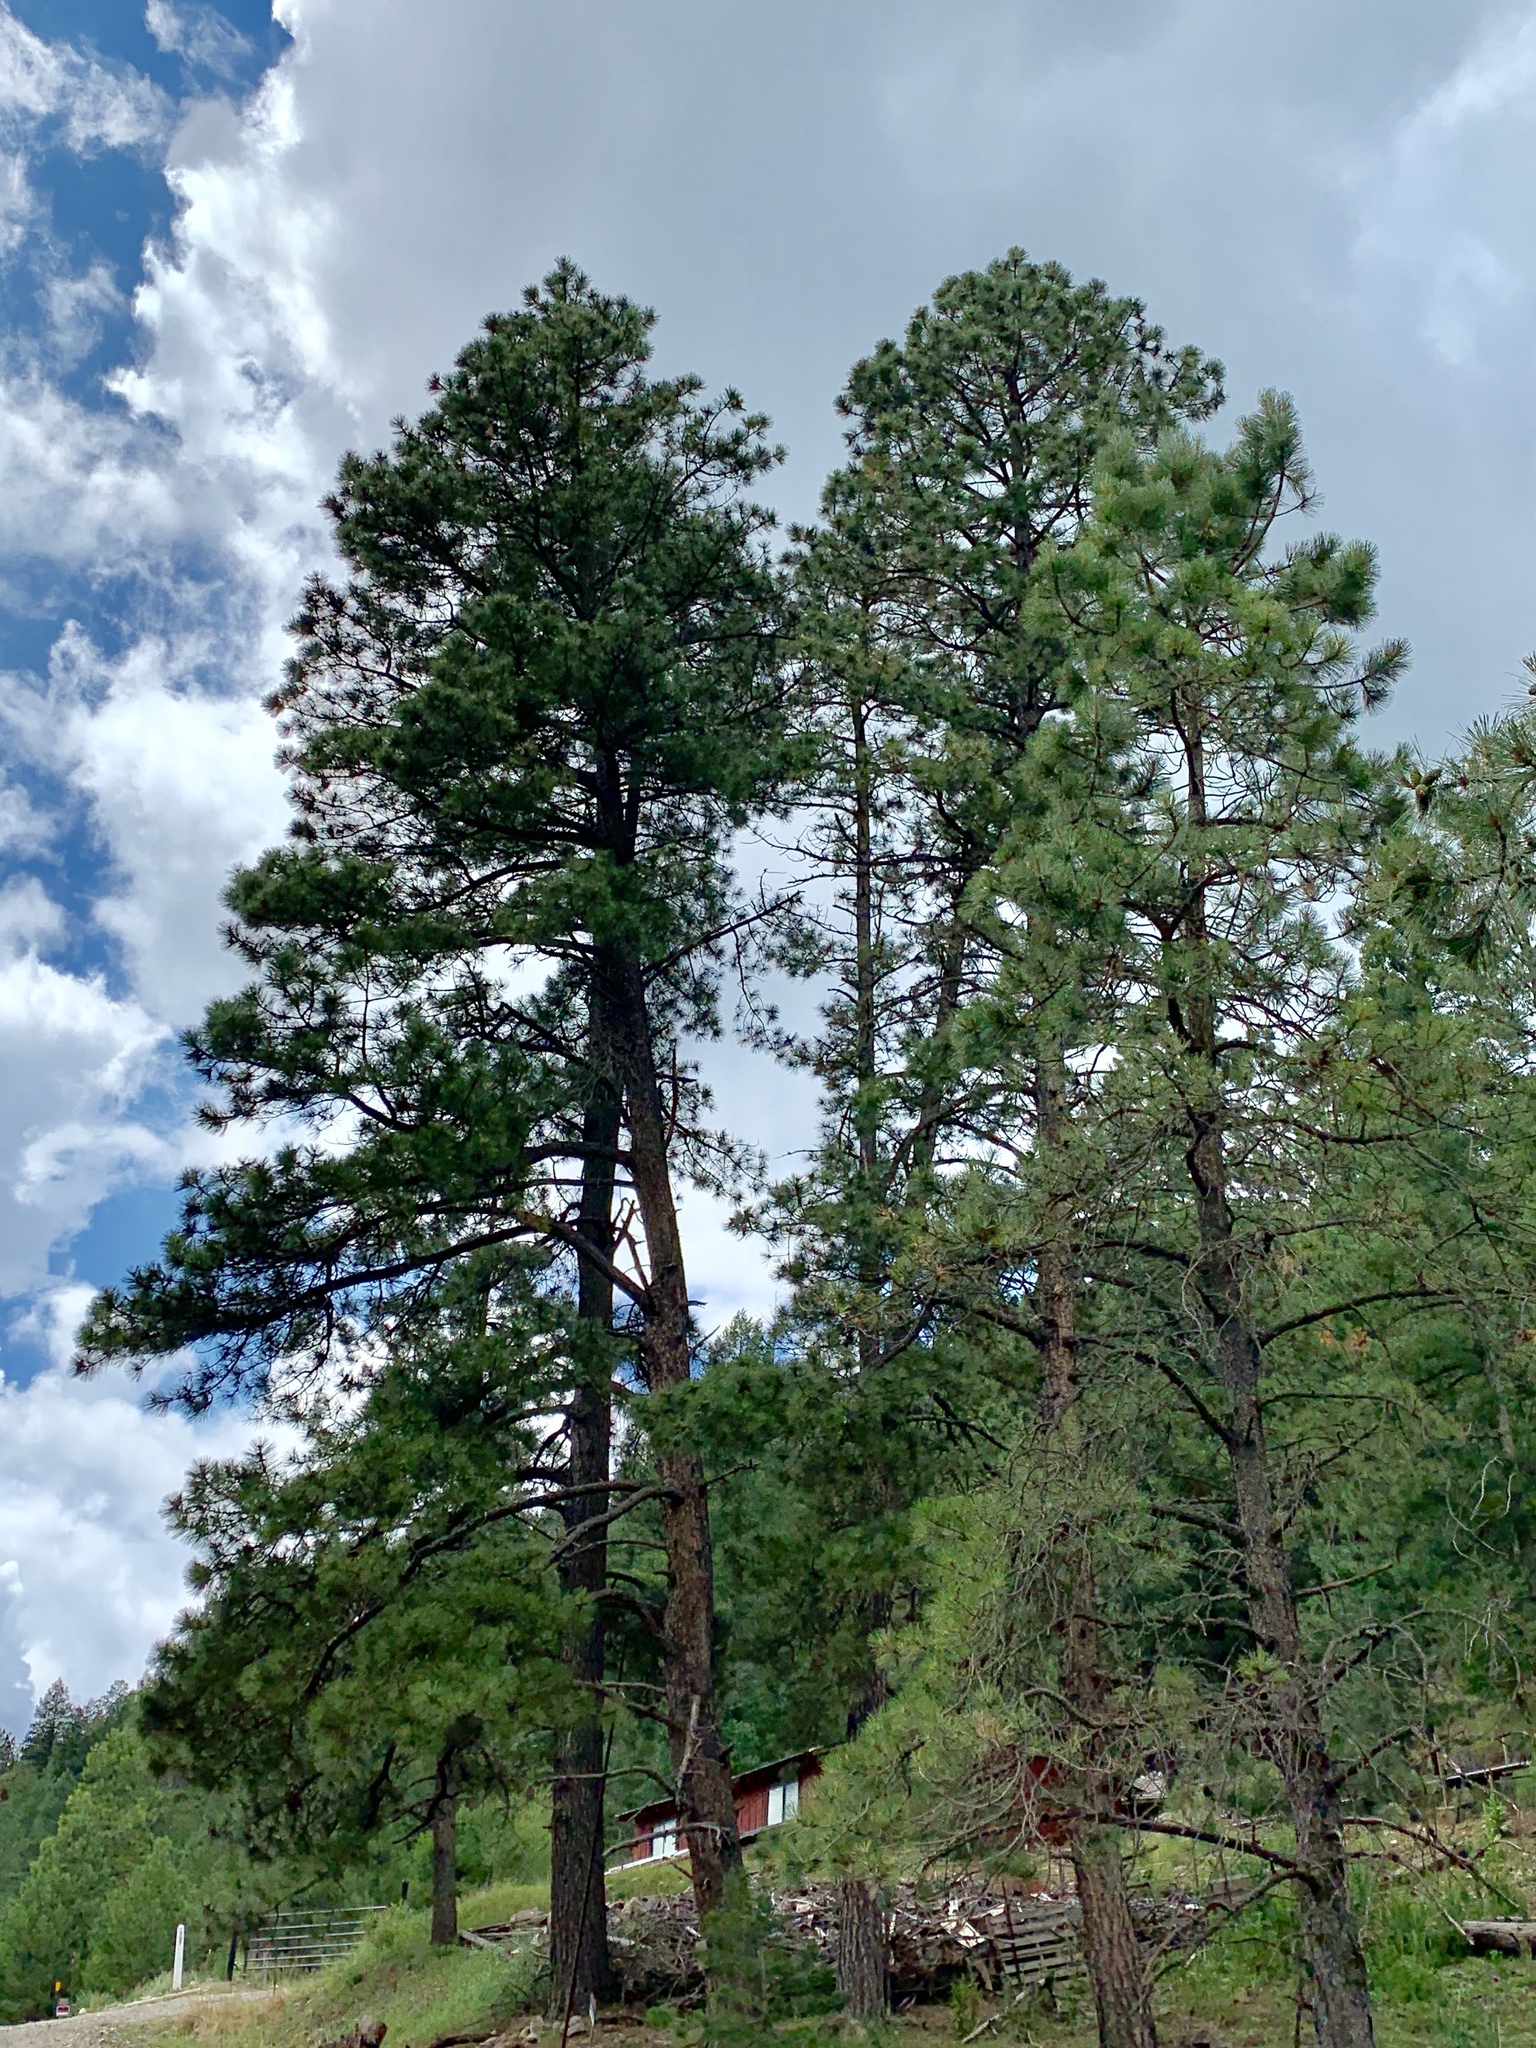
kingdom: Plantae
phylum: Tracheophyta
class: Pinopsida
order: Pinales
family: Pinaceae
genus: Pinus
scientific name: Pinus ponderosa
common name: Western yellow-pine
